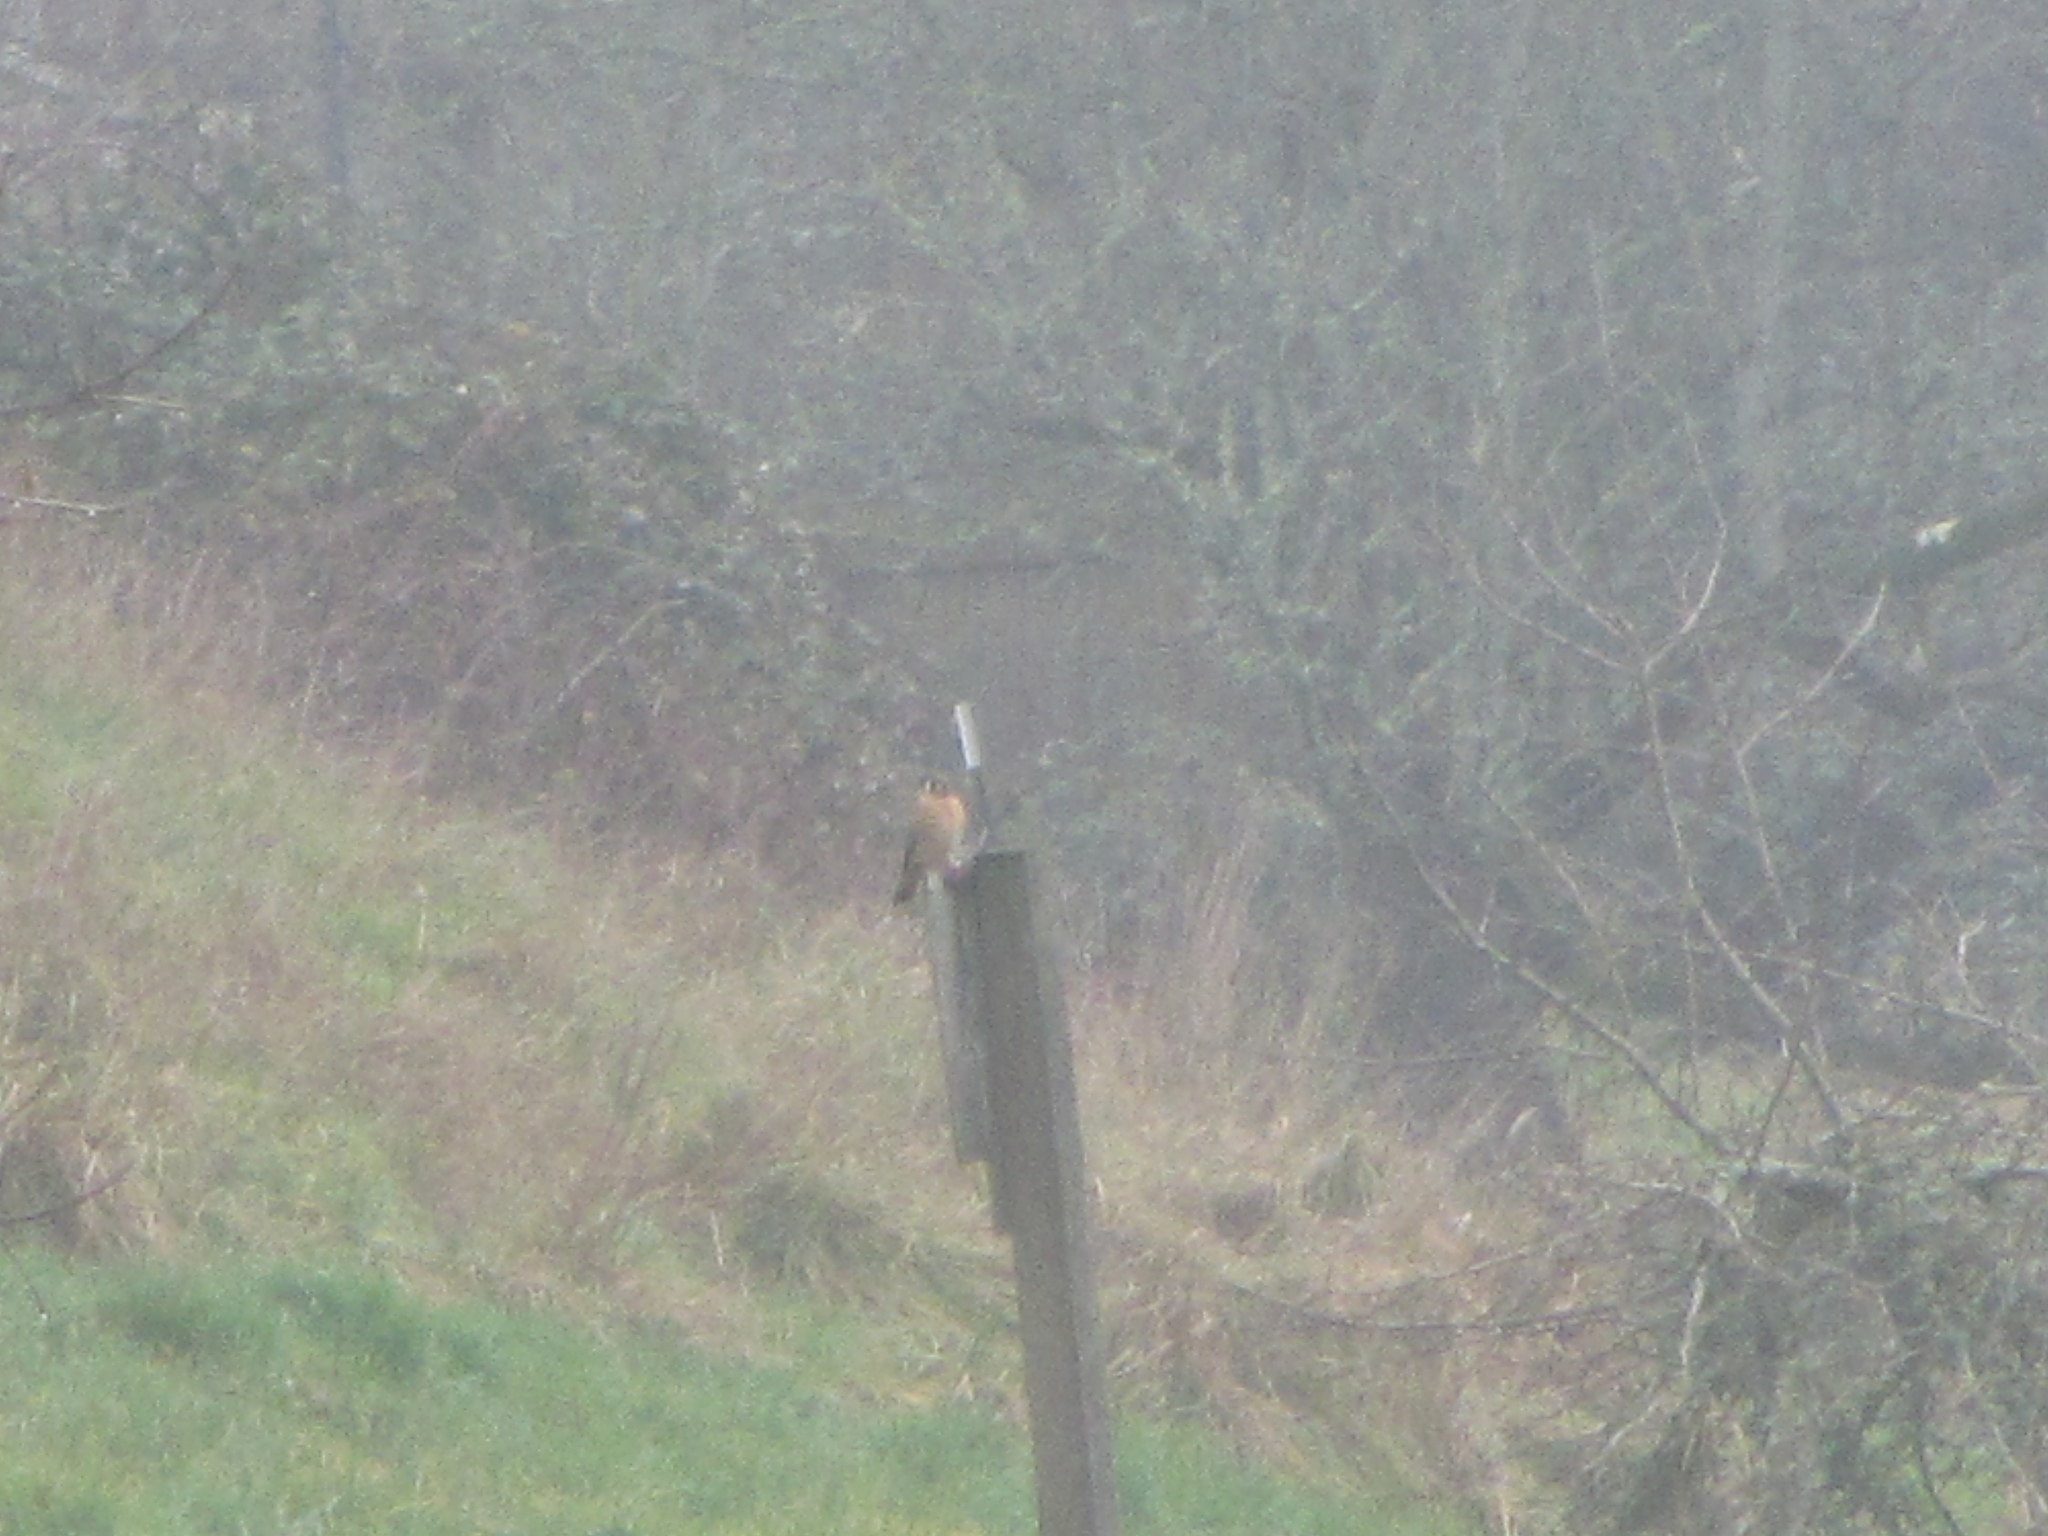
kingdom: Animalia
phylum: Chordata
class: Aves
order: Falconiformes
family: Falconidae
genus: Falco
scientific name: Falco sparverius
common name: American kestrel
